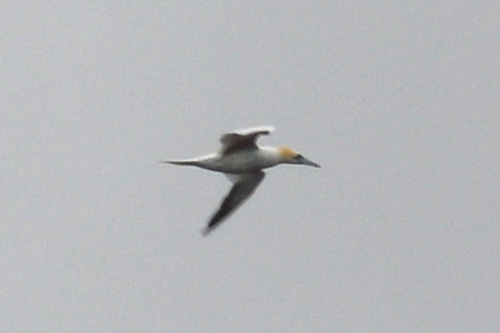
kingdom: Animalia
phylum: Chordata
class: Aves
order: Suliformes
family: Sulidae
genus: Morus
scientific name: Morus bassanus
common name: Northern gannet
